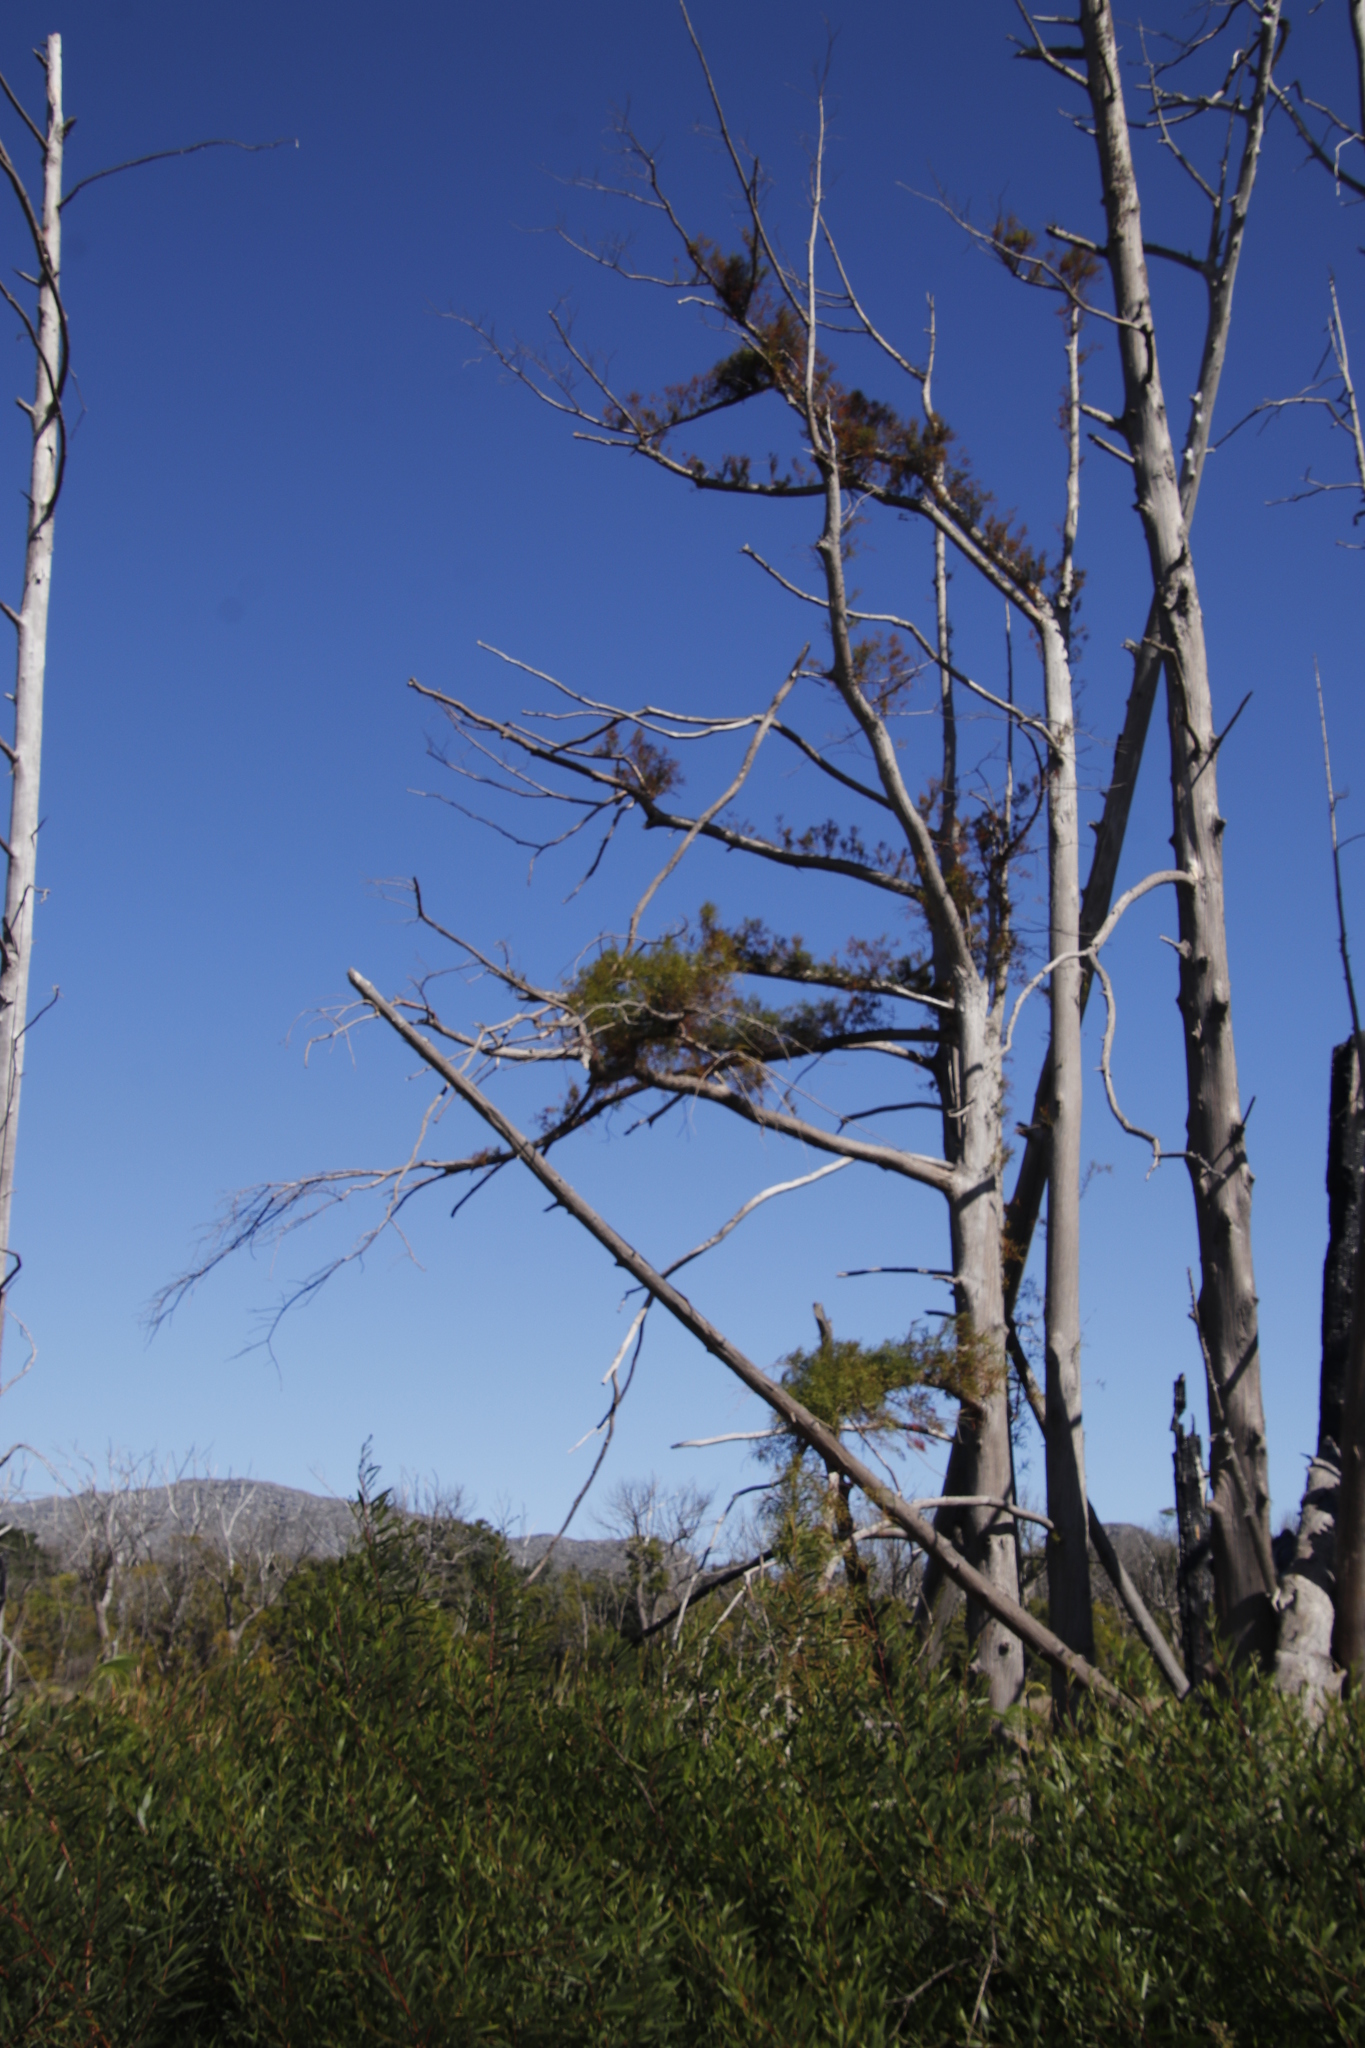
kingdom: Plantae
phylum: Tracheophyta
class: Pinopsida
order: Pinales
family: Cupressaceae
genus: Taxodium
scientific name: Taxodium distichum
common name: Bald cypress
